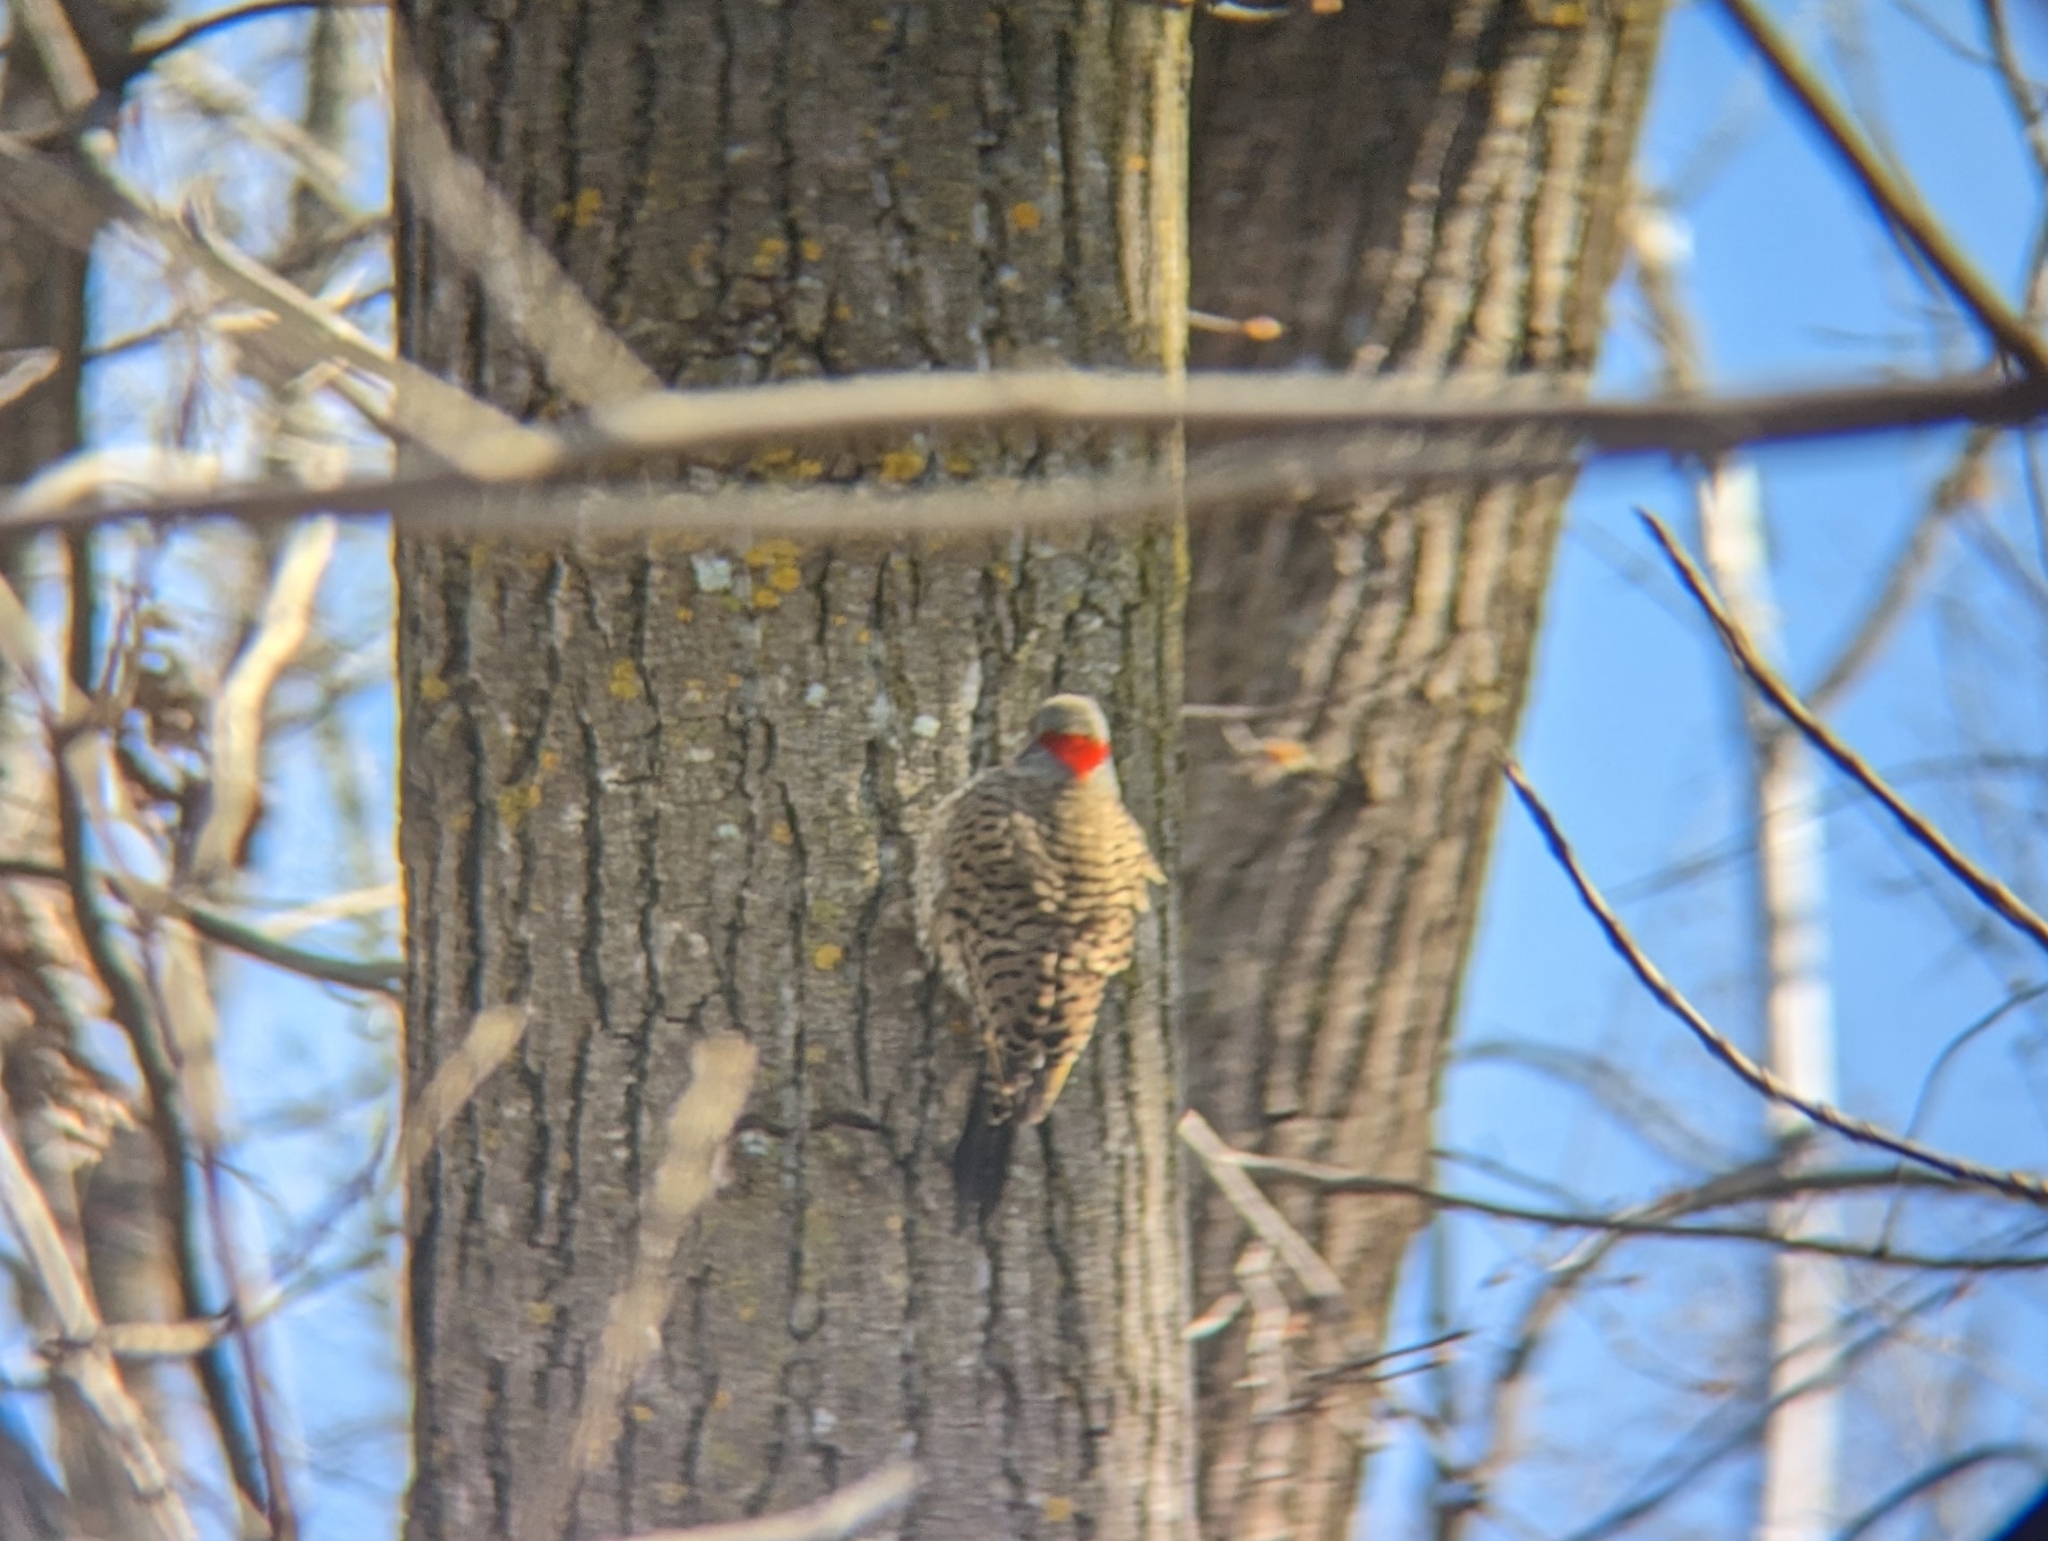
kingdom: Animalia
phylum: Chordata
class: Aves
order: Piciformes
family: Picidae
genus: Colaptes
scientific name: Colaptes auratus
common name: Northern flicker
